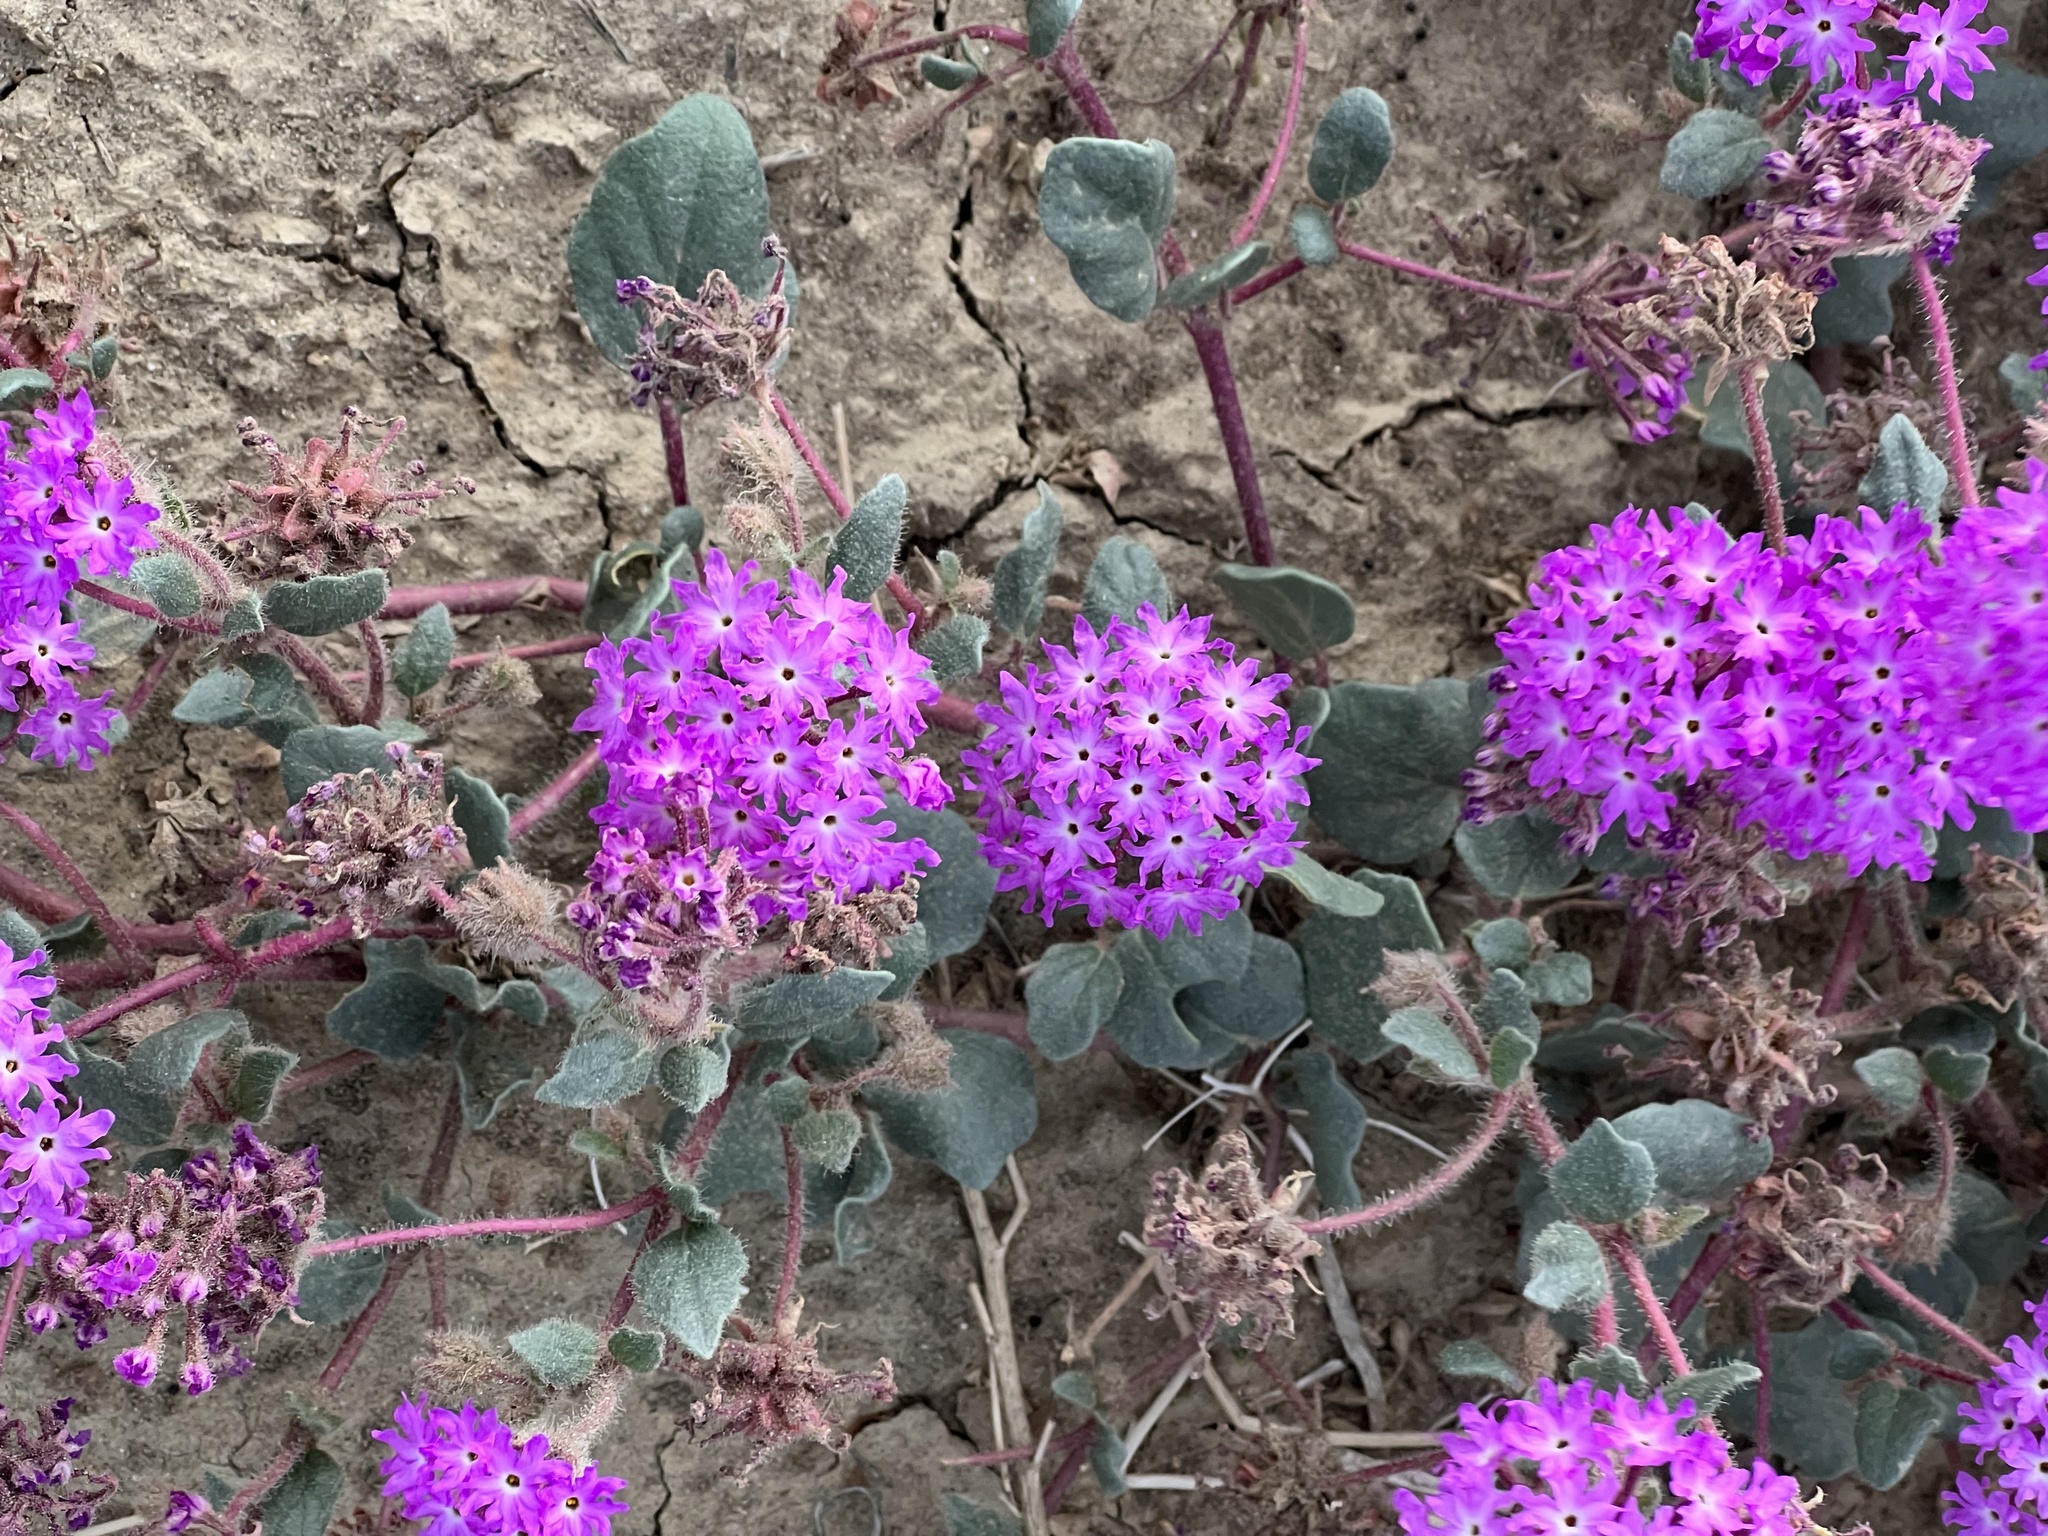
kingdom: Plantae
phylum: Tracheophyta
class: Magnoliopsida
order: Caryophyllales
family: Nyctaginaceae
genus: Abronia
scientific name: Abronia villosa
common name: Desert sand-verbena
